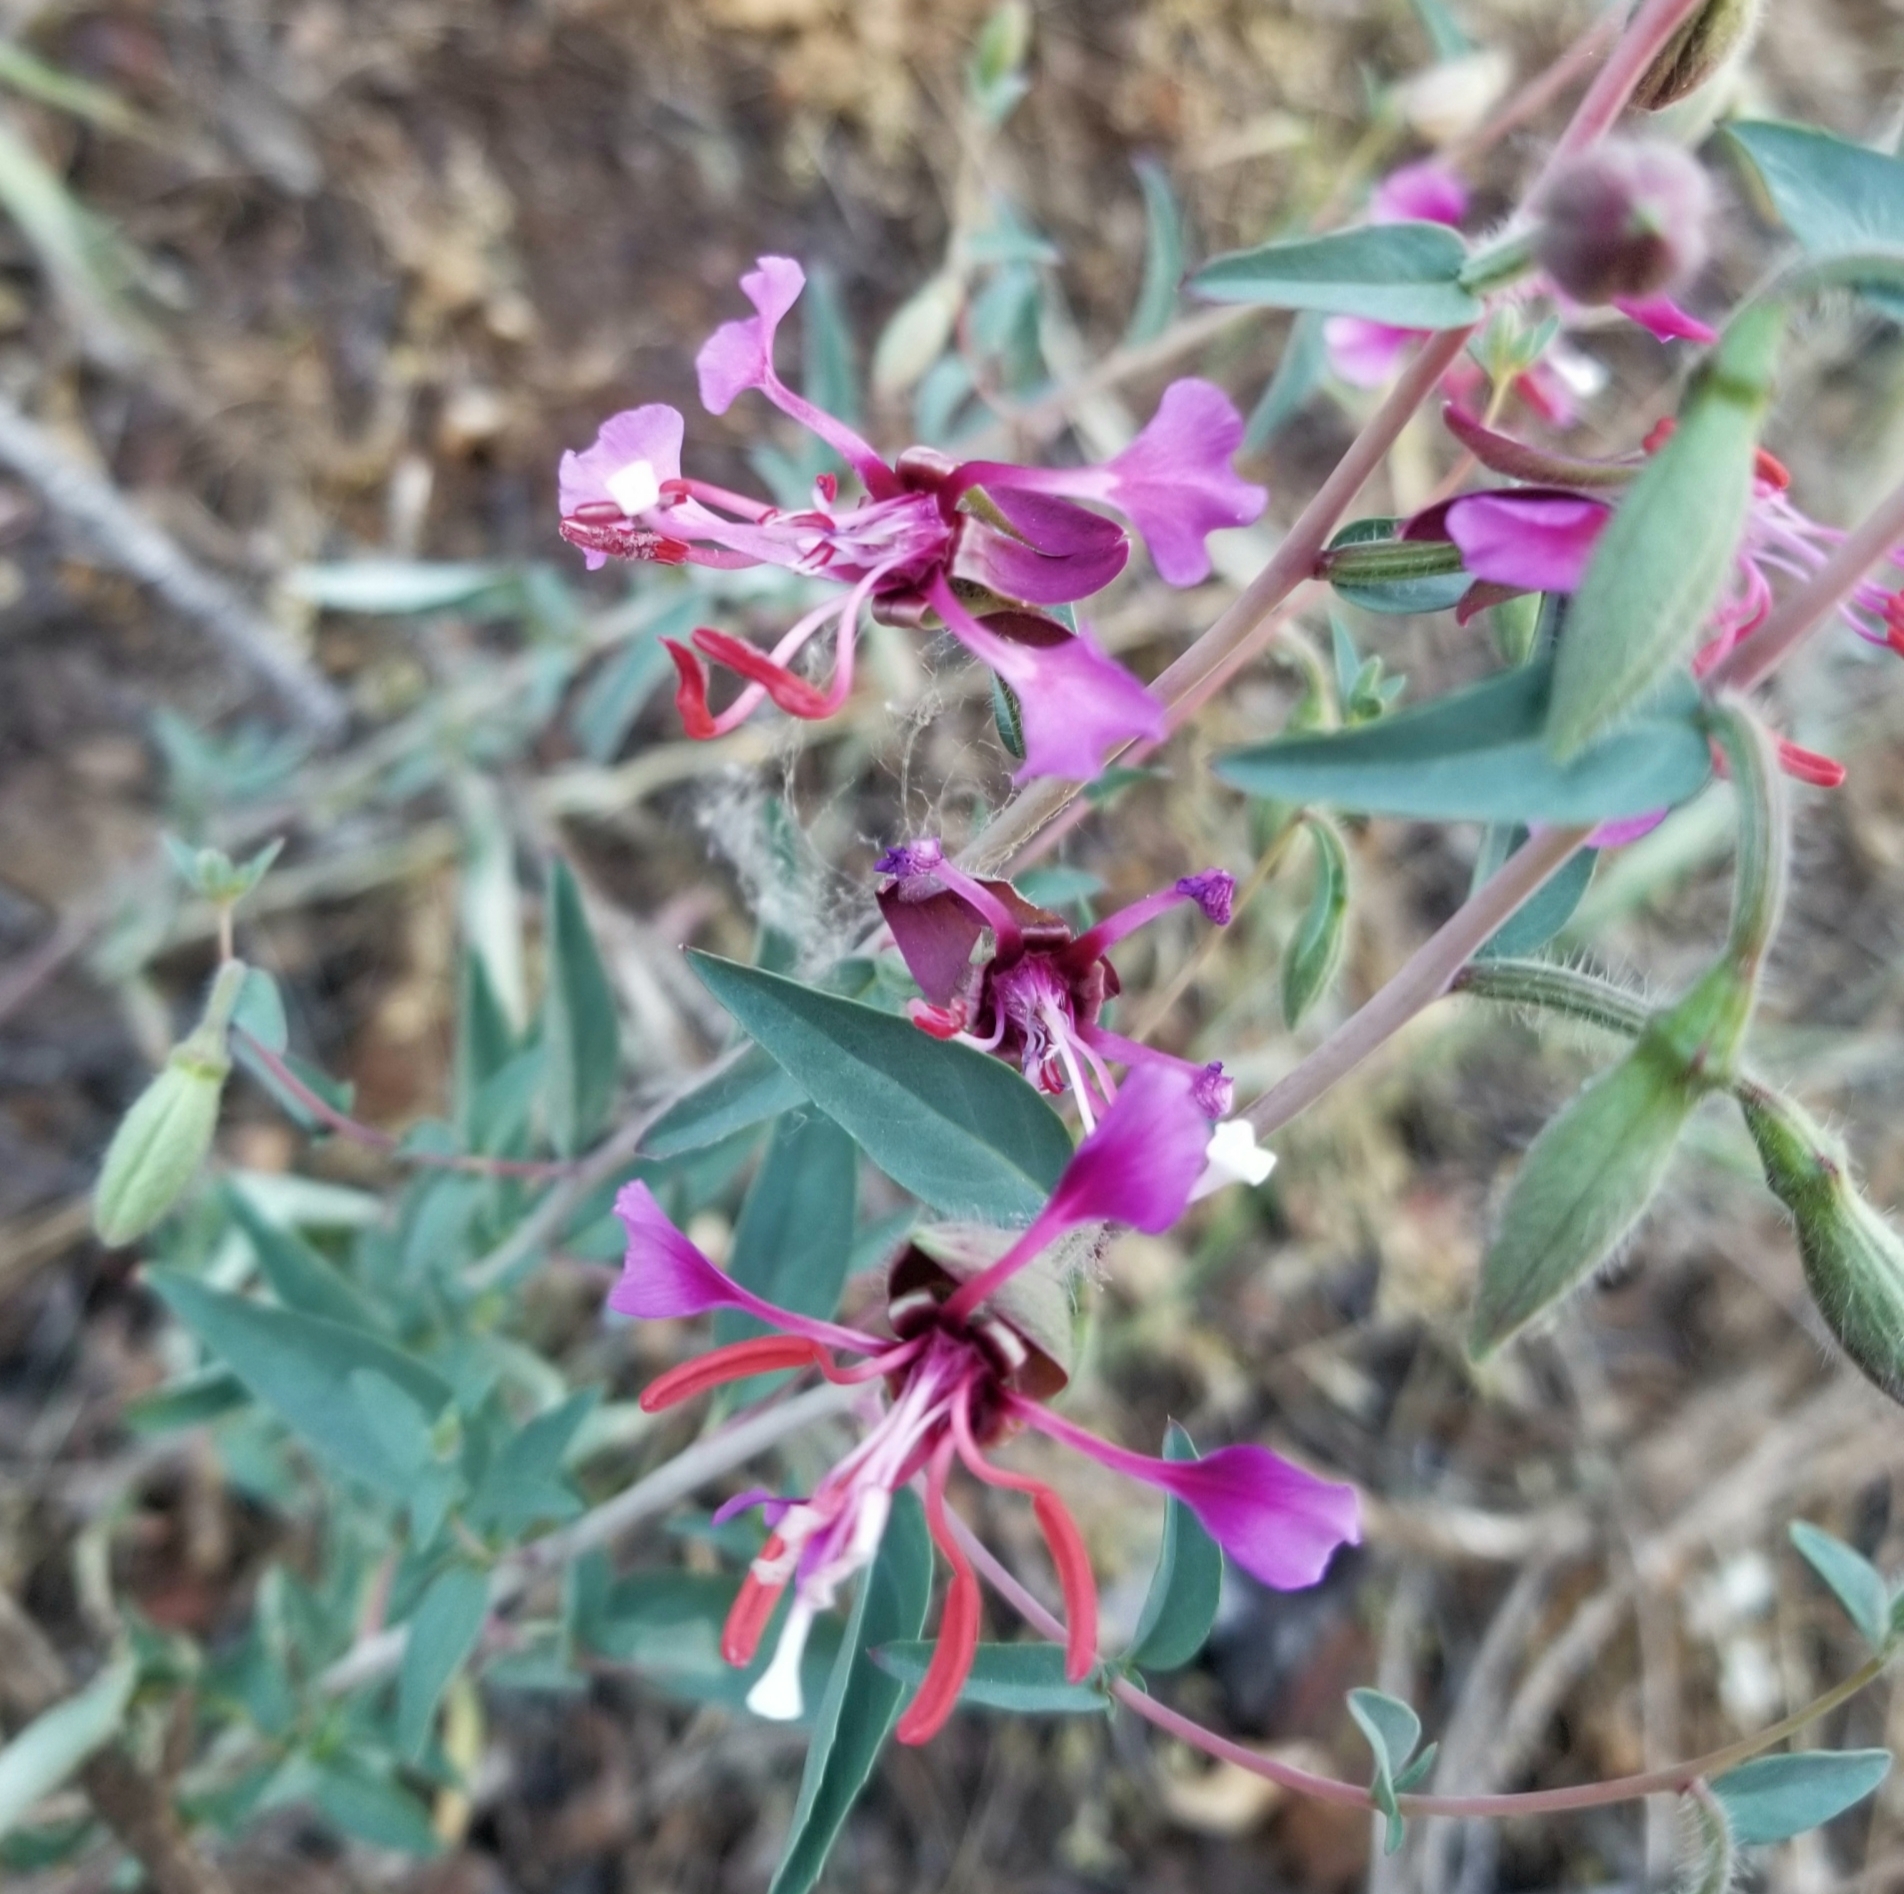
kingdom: Plantae
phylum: Tracheophyta
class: Magnoliopsida
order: Myrtales
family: Onagraceae
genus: Clarkia
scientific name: Clarkia unguiculata
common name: Clarkia
